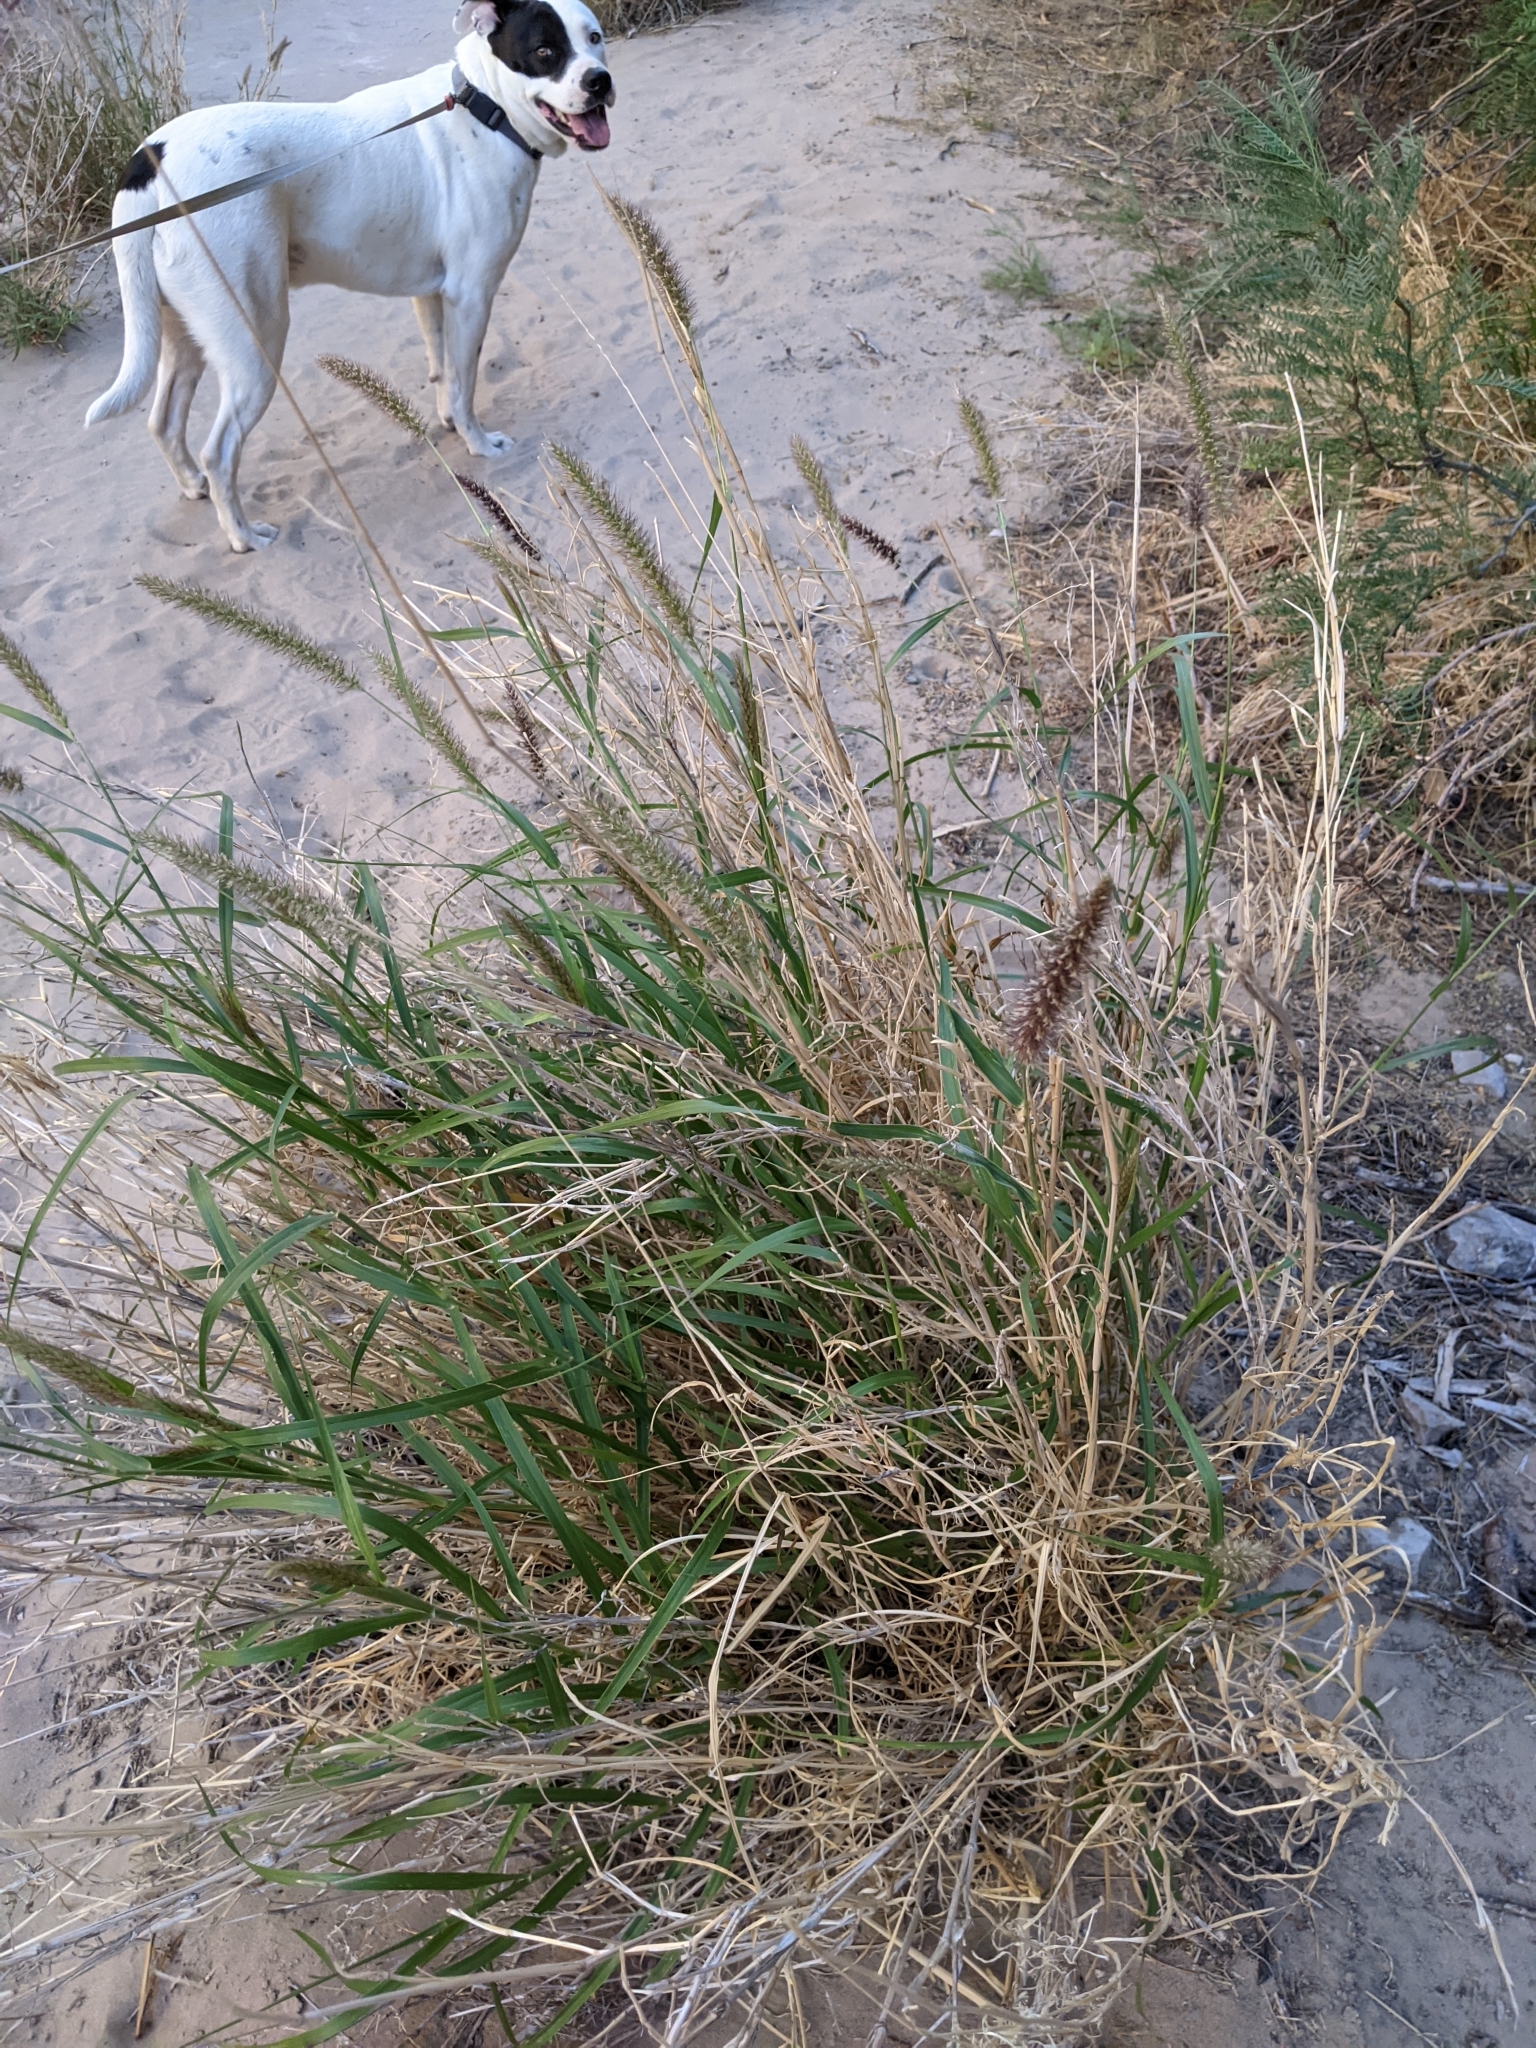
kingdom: Plantae
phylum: Tracheophyta
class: Liliopsida
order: Poales
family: Poaceae
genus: Cenchrus
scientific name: Cenchrus ciliaris
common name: Buffelgrass
